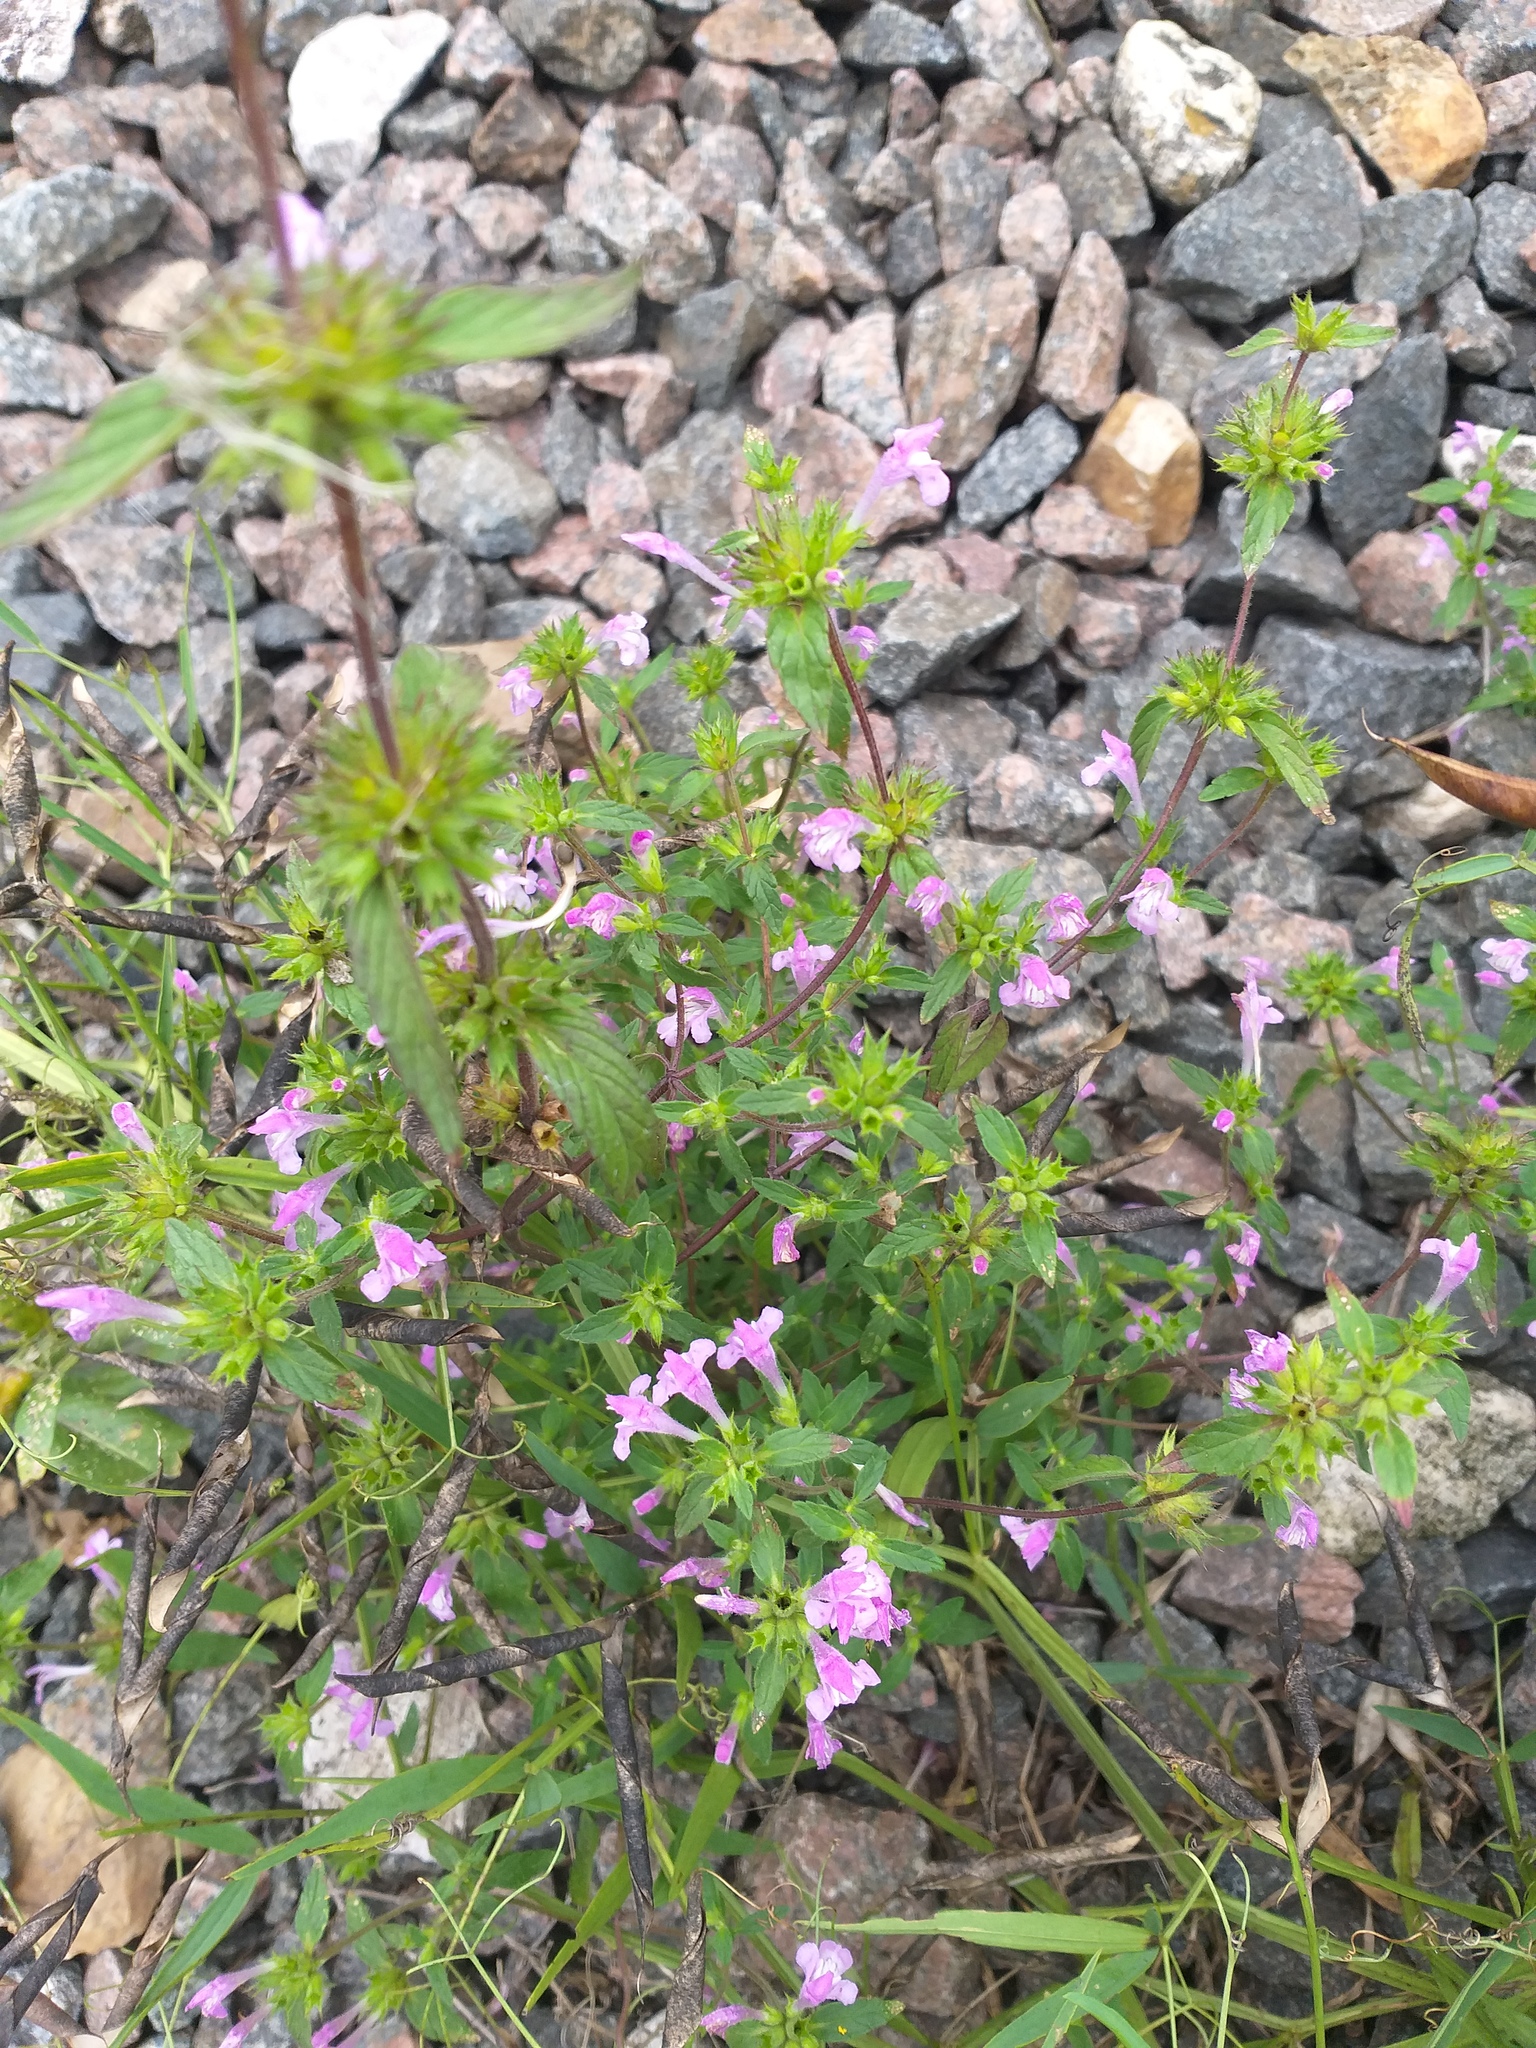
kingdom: Plantae
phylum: Tracheophyta
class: Magnoliopsida
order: Lamiales
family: Lamiaceae
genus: Galeopsis
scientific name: Galeopsis ladanum
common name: Broad-leaved hemp-nettle
